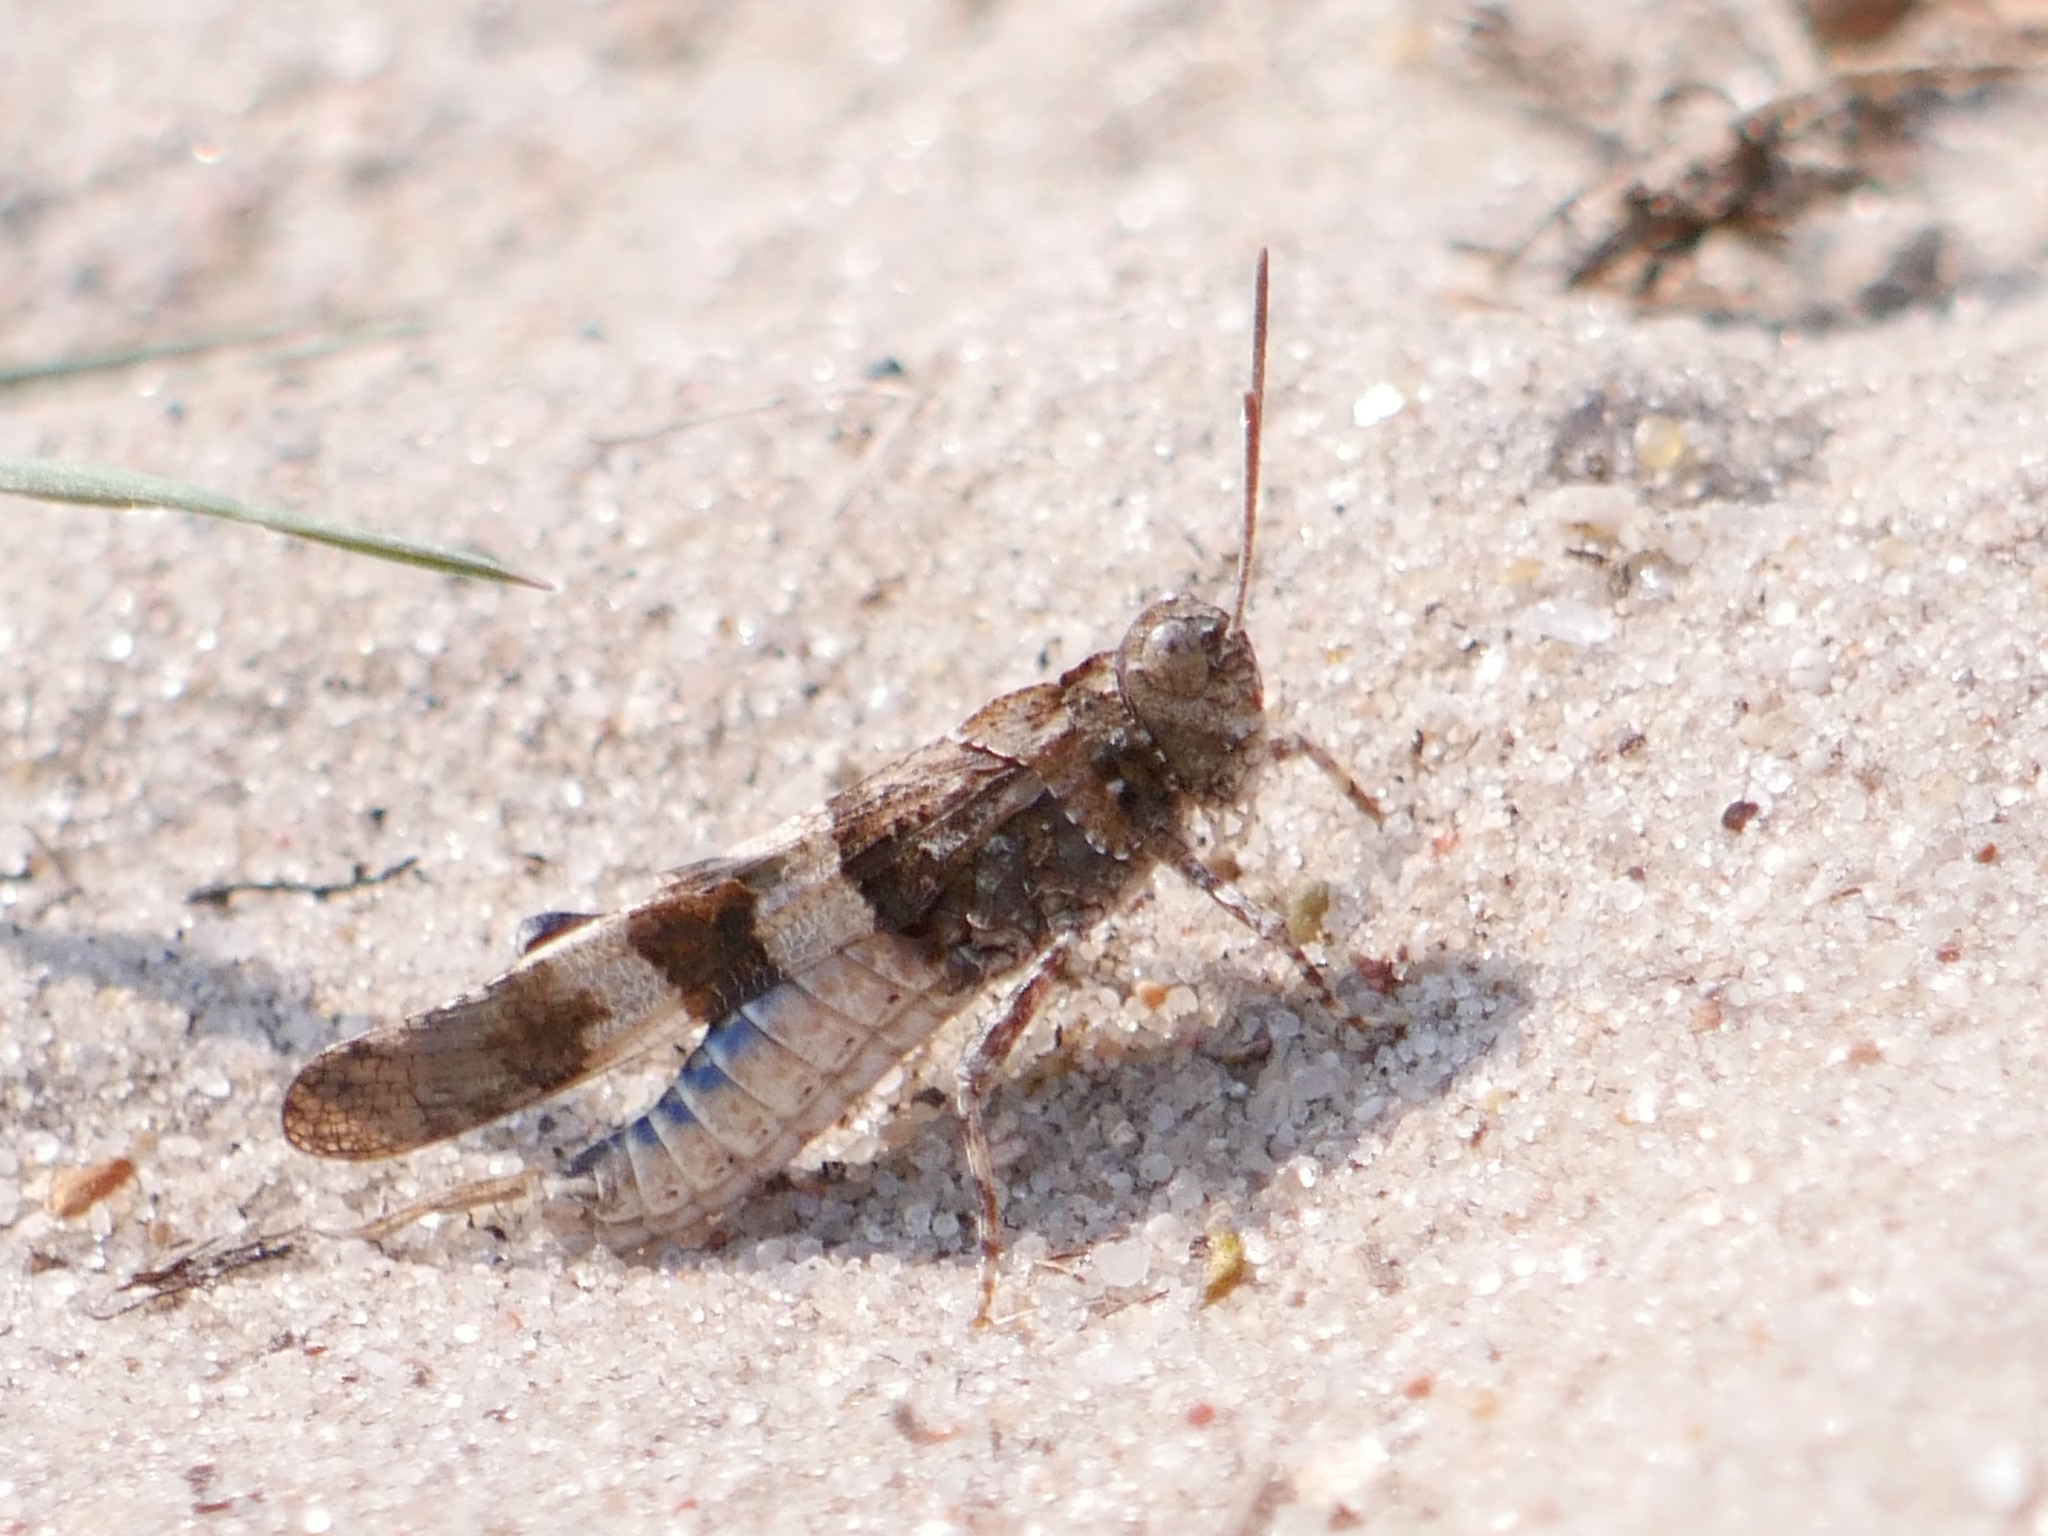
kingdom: Animalia
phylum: Arthropoda
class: Insecta
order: Orthoptera
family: Acrididae
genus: Oedipoda
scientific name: Oedipoda caerulescens
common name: Blue-winged grasshopper
